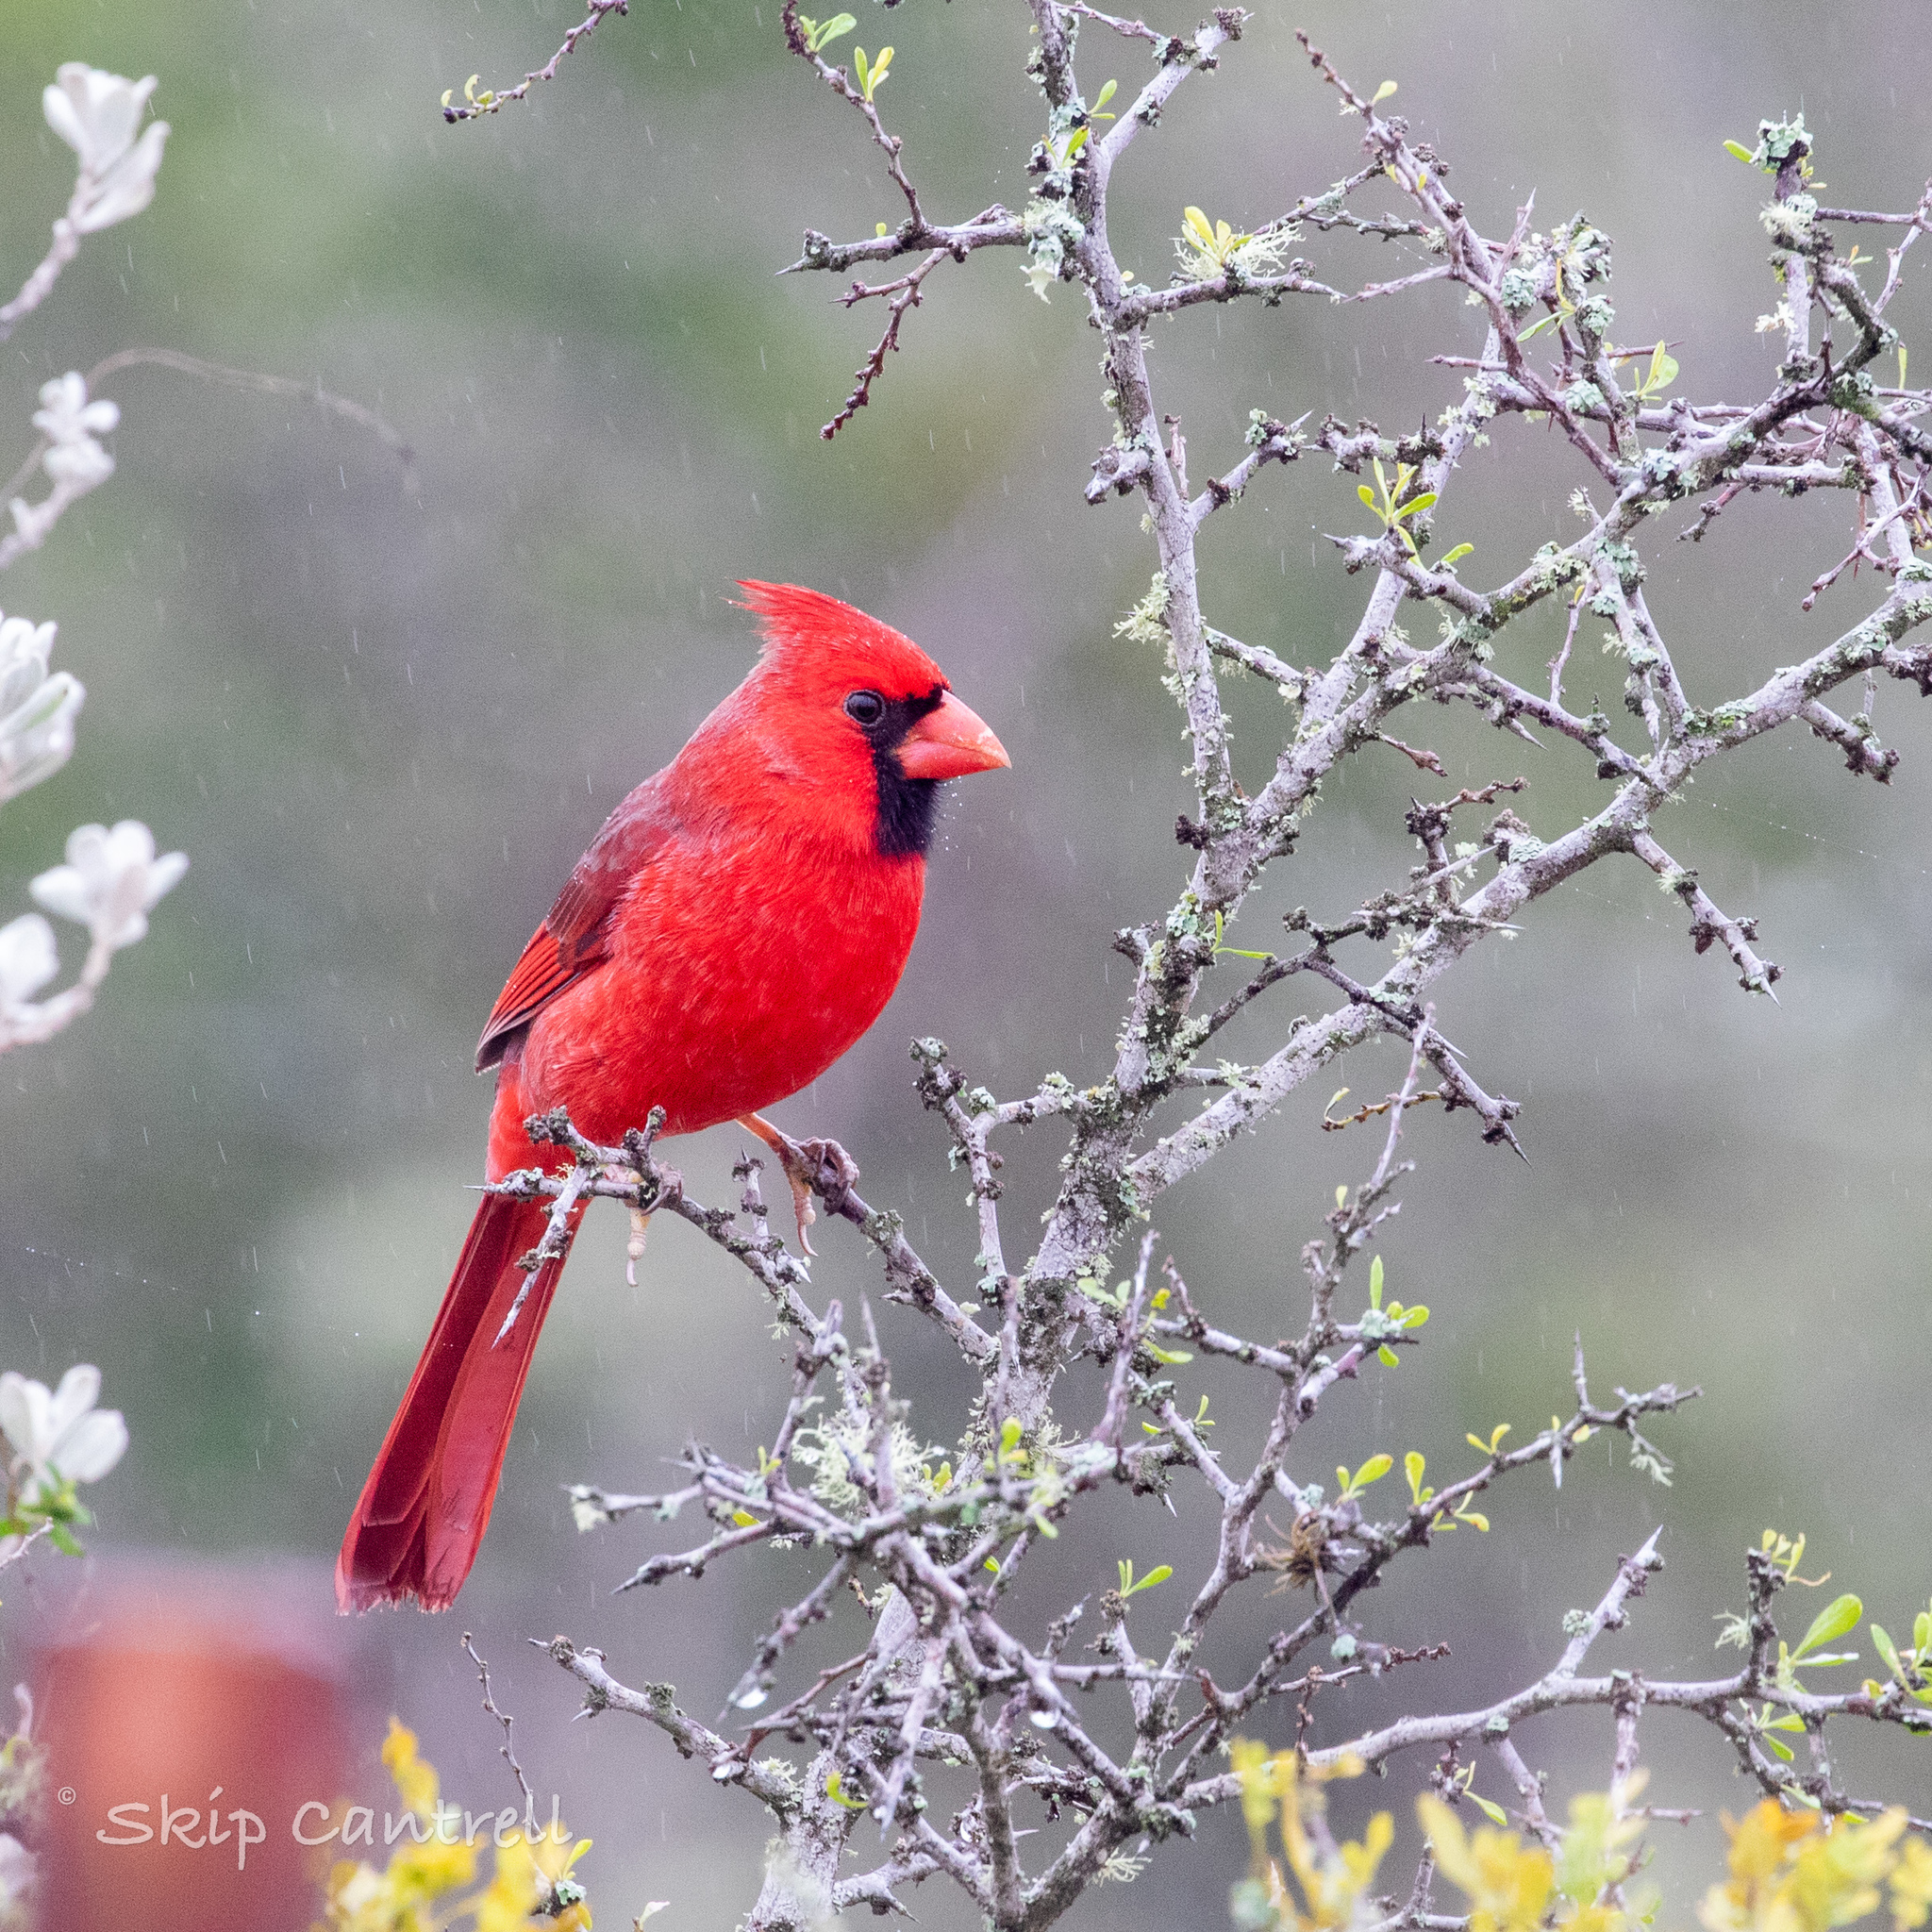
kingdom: Animalia
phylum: Chordata
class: Aves
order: Passeriformes
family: Cardinalidae
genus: Cardinalis
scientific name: Cardinalis cardinalis
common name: Northern cardinal
